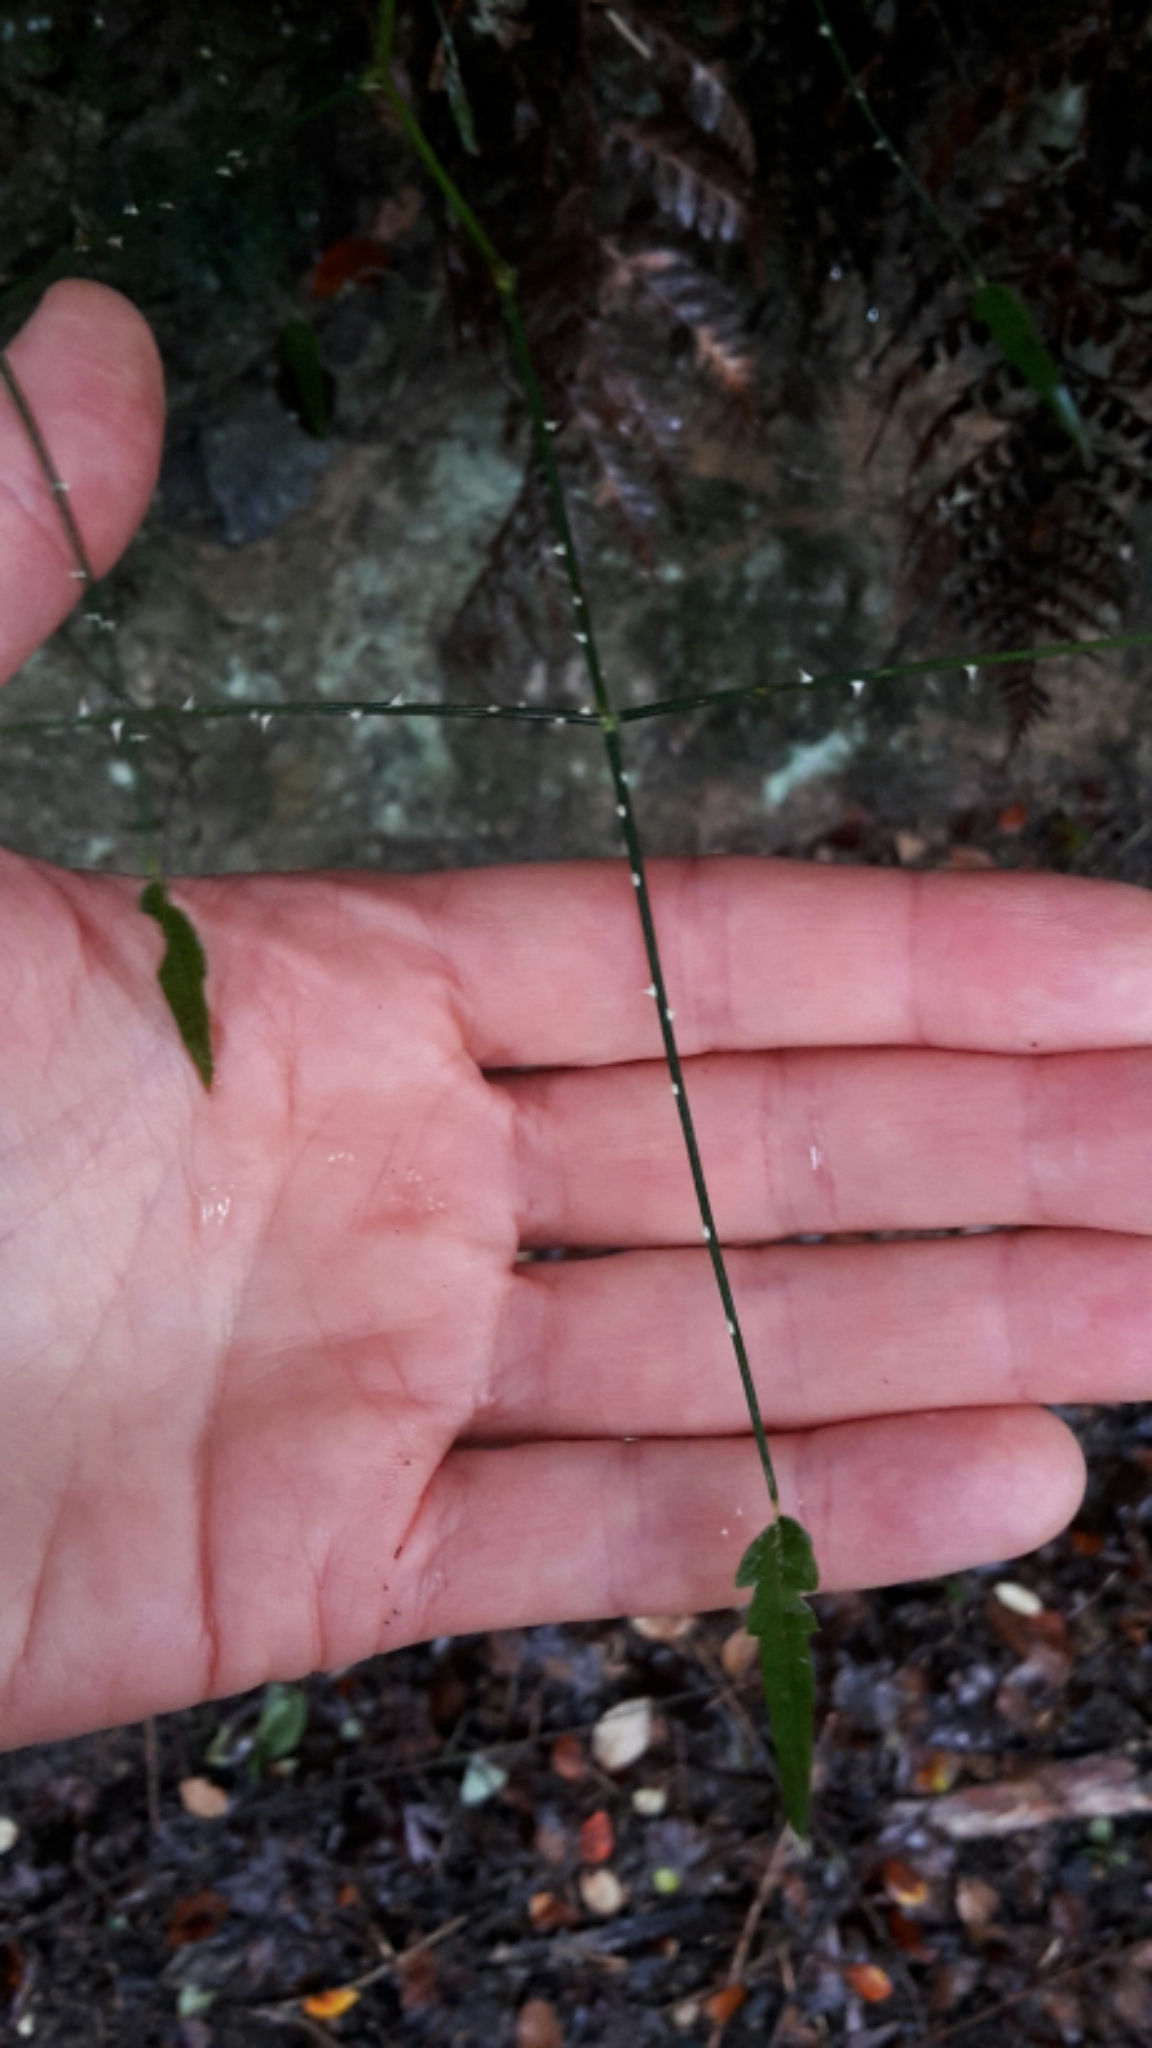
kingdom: Plantae
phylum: Tracheophyta
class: Magnoliopsida
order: Rosales
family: Rosaceae
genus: Rubus
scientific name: Rubus squarrosus
